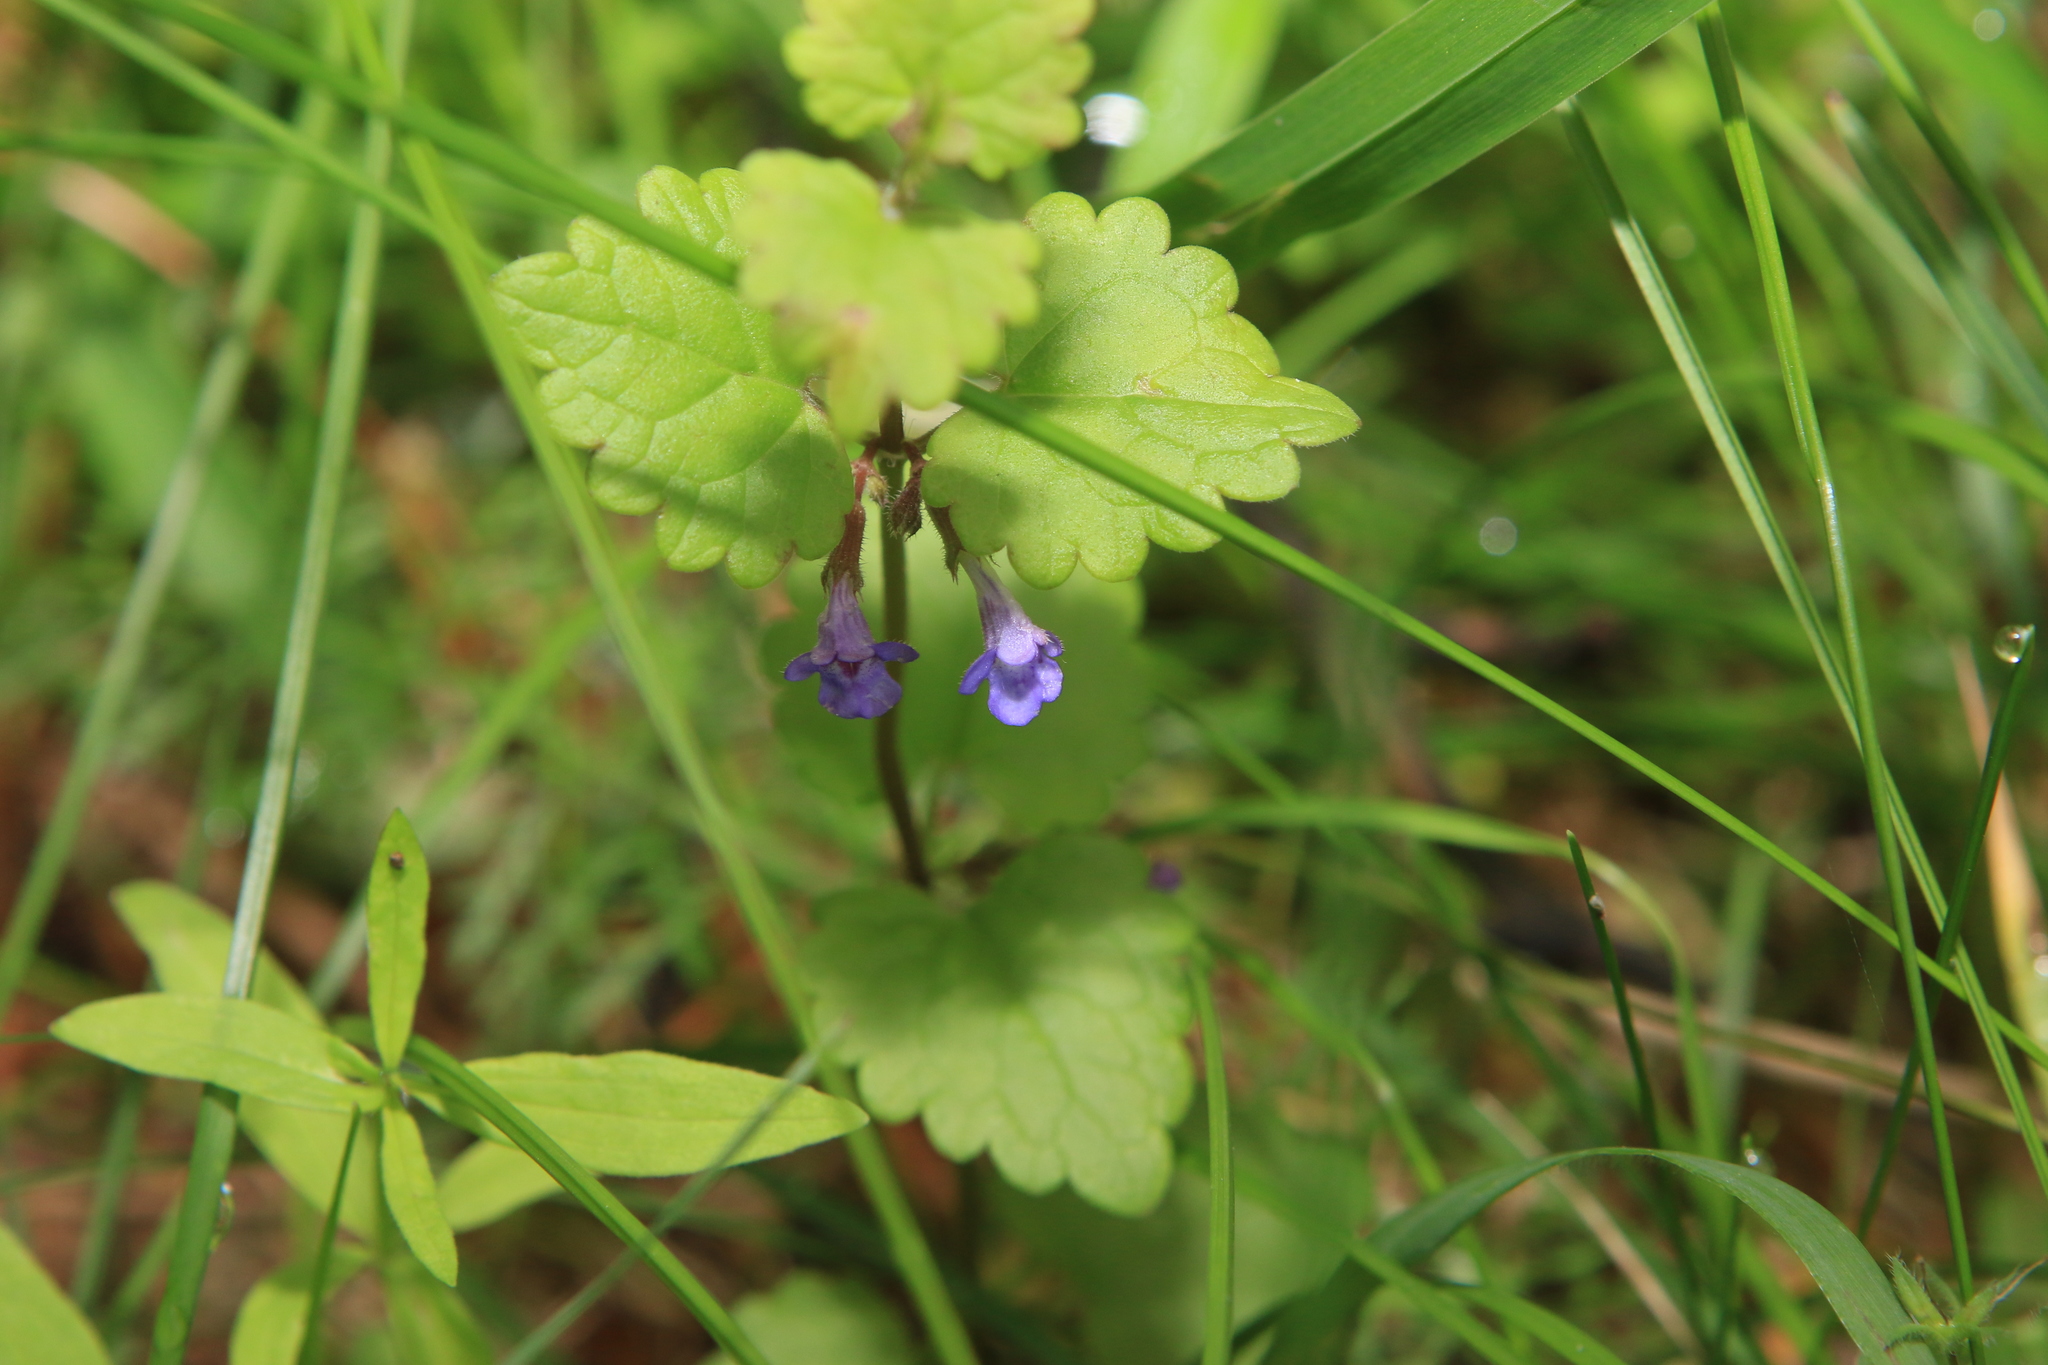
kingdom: Plantae
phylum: Tracheophyta
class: Magnoliopsida
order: Lamiales
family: Lamiaceae
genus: Glechoma
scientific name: Glechoma hederacea
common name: Ground ivy
